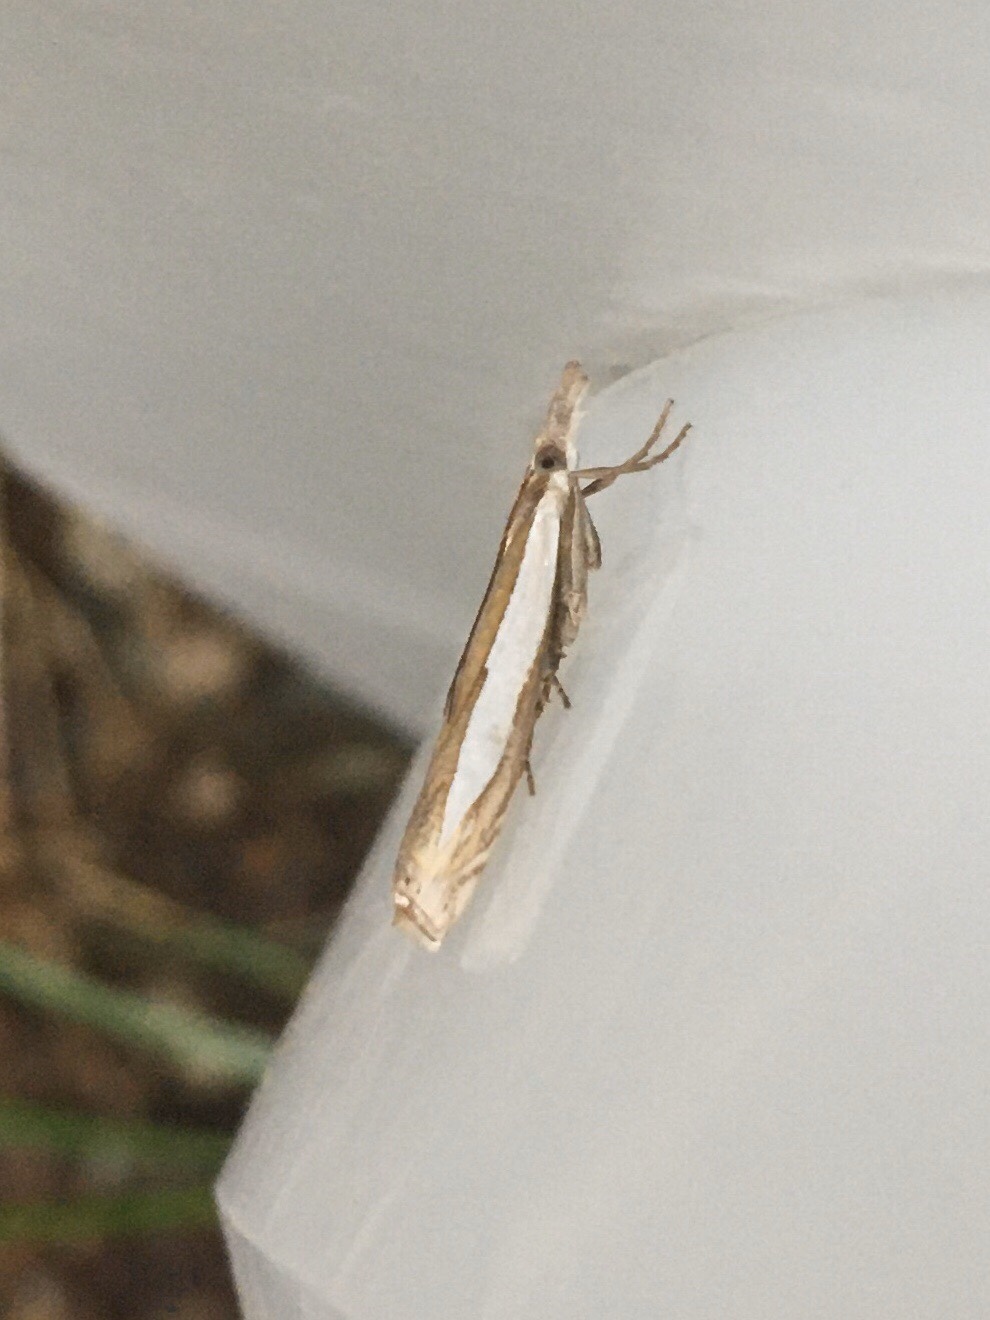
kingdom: Animalia
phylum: Arthropoda
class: Insecta
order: Lepidoptera
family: Crambidae
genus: Crambus
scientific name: Crambus leachellus
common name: Leach's grass-veneer
